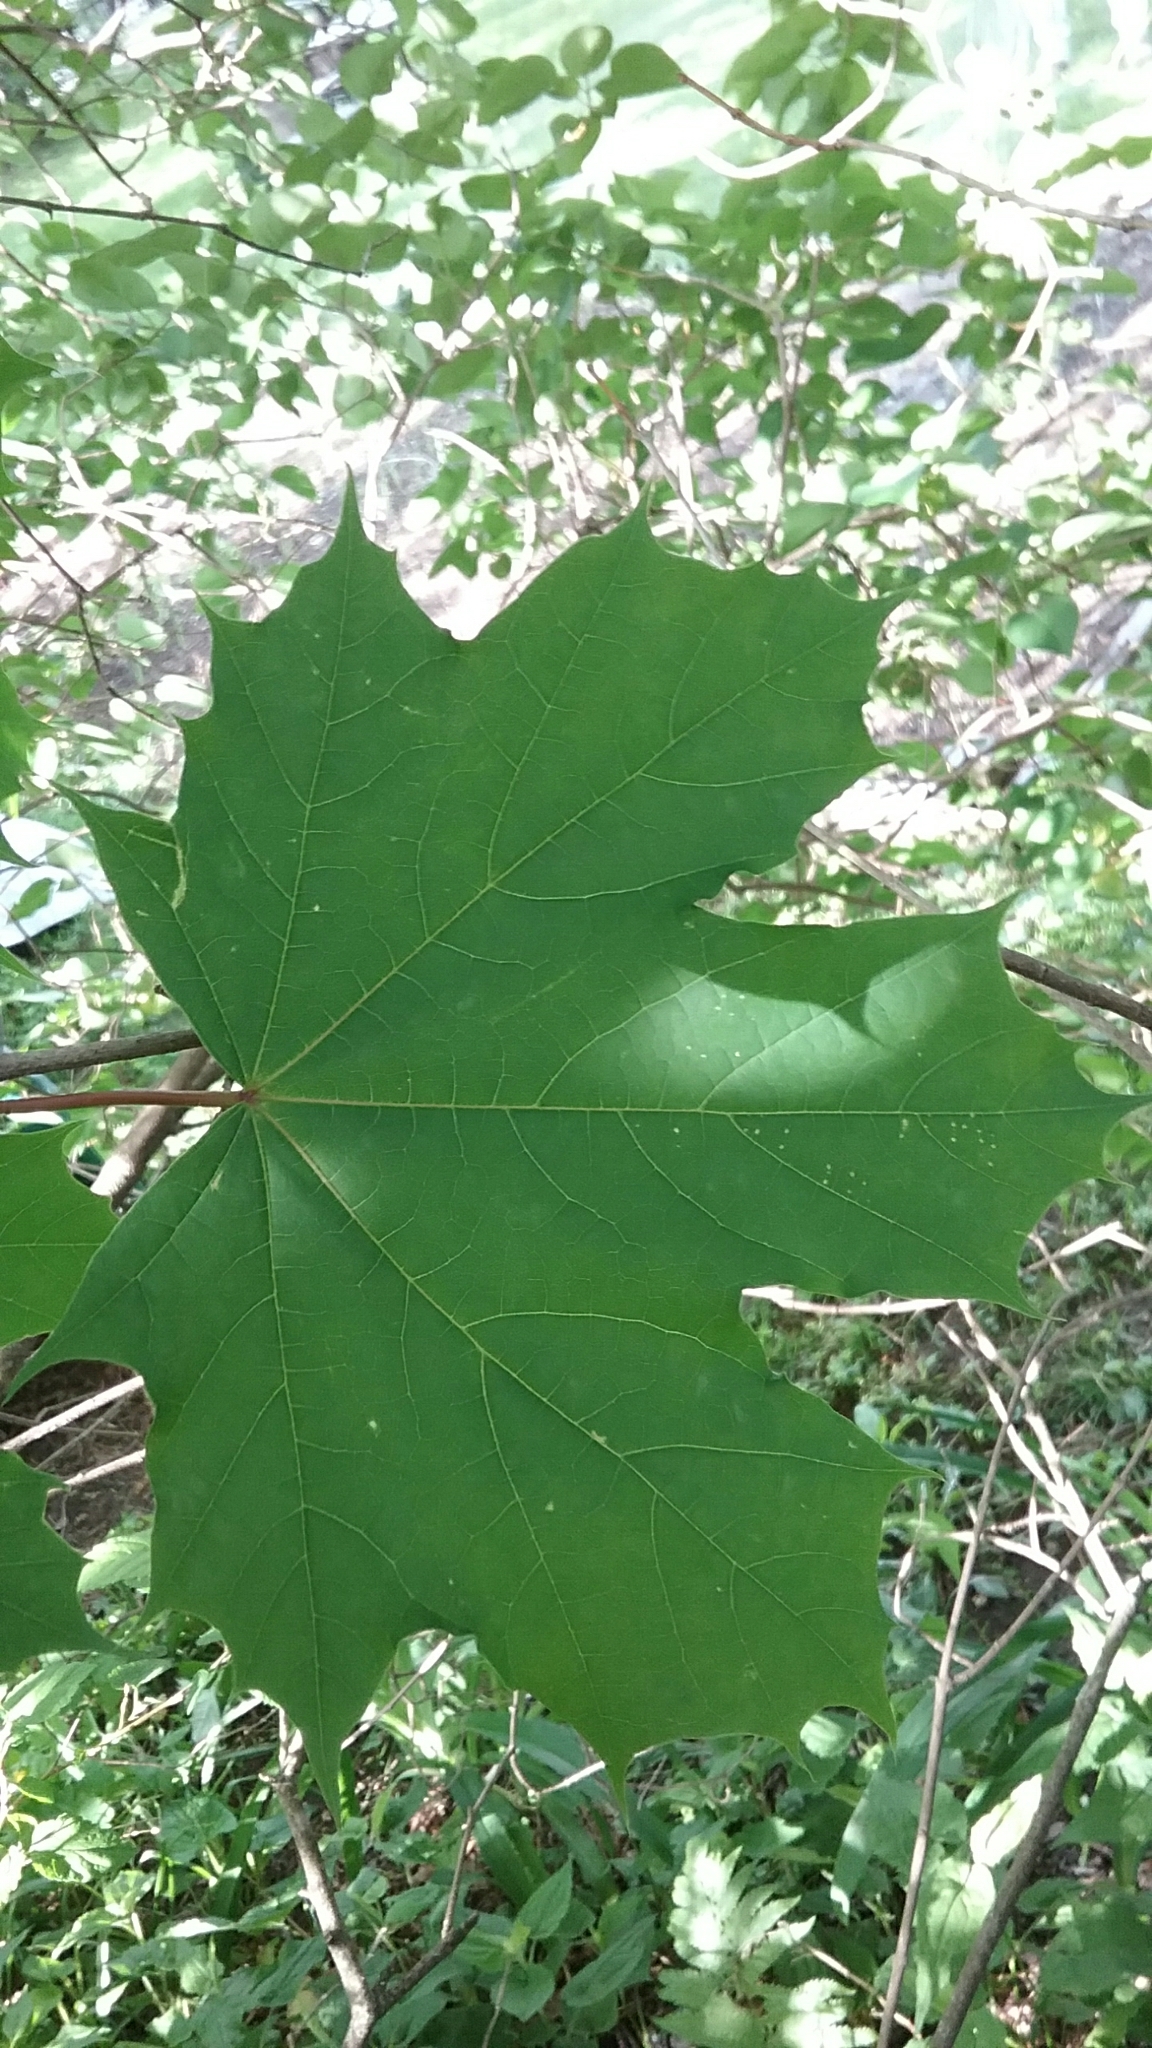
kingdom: Plantae
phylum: Tracheophyta
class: Magnoliopsida
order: Sapindales
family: Sapindaceae
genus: Acer
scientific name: Acer platanoides
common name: Norway maple
